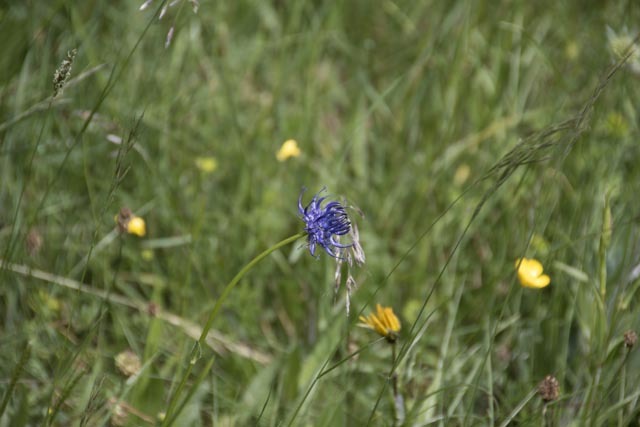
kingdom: Plantae
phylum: Tracheophyta
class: Magnoliopsida
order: Asterales
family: Campanulaceae
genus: Phyteuma
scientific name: Phyteuma orbiculare
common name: Round-headed rampion
